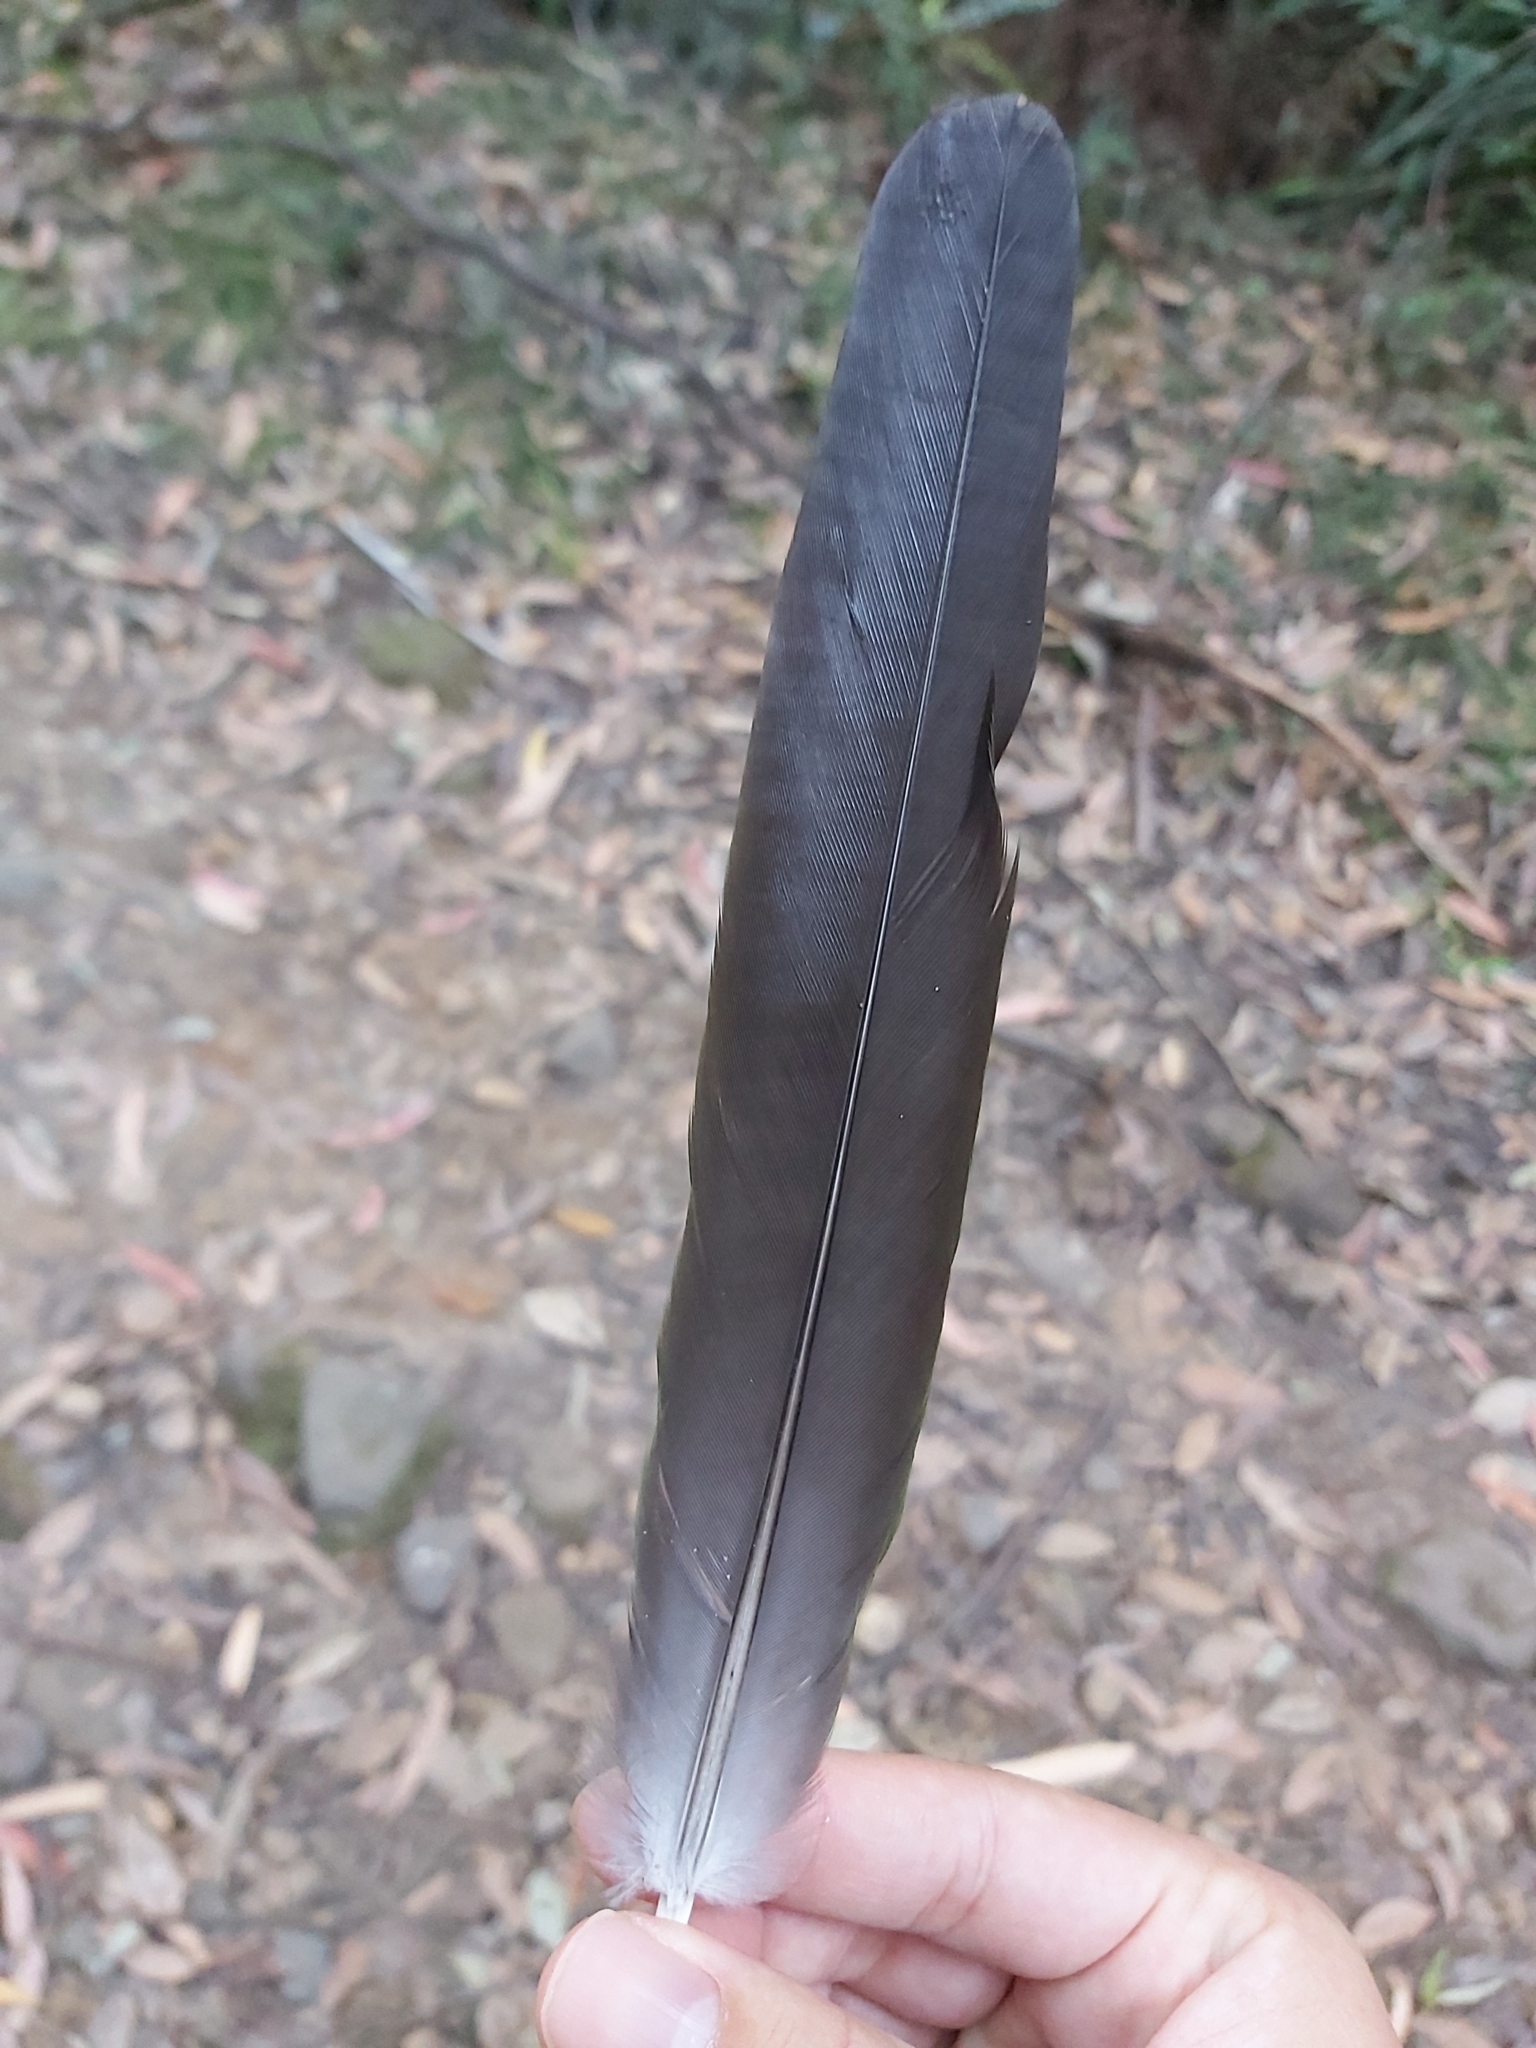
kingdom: Animalia
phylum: Chordata
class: Aves
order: Psittaciformes
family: Psittacidae
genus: Alisterus
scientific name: Alisterus scapularis
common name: Australian king parrot
